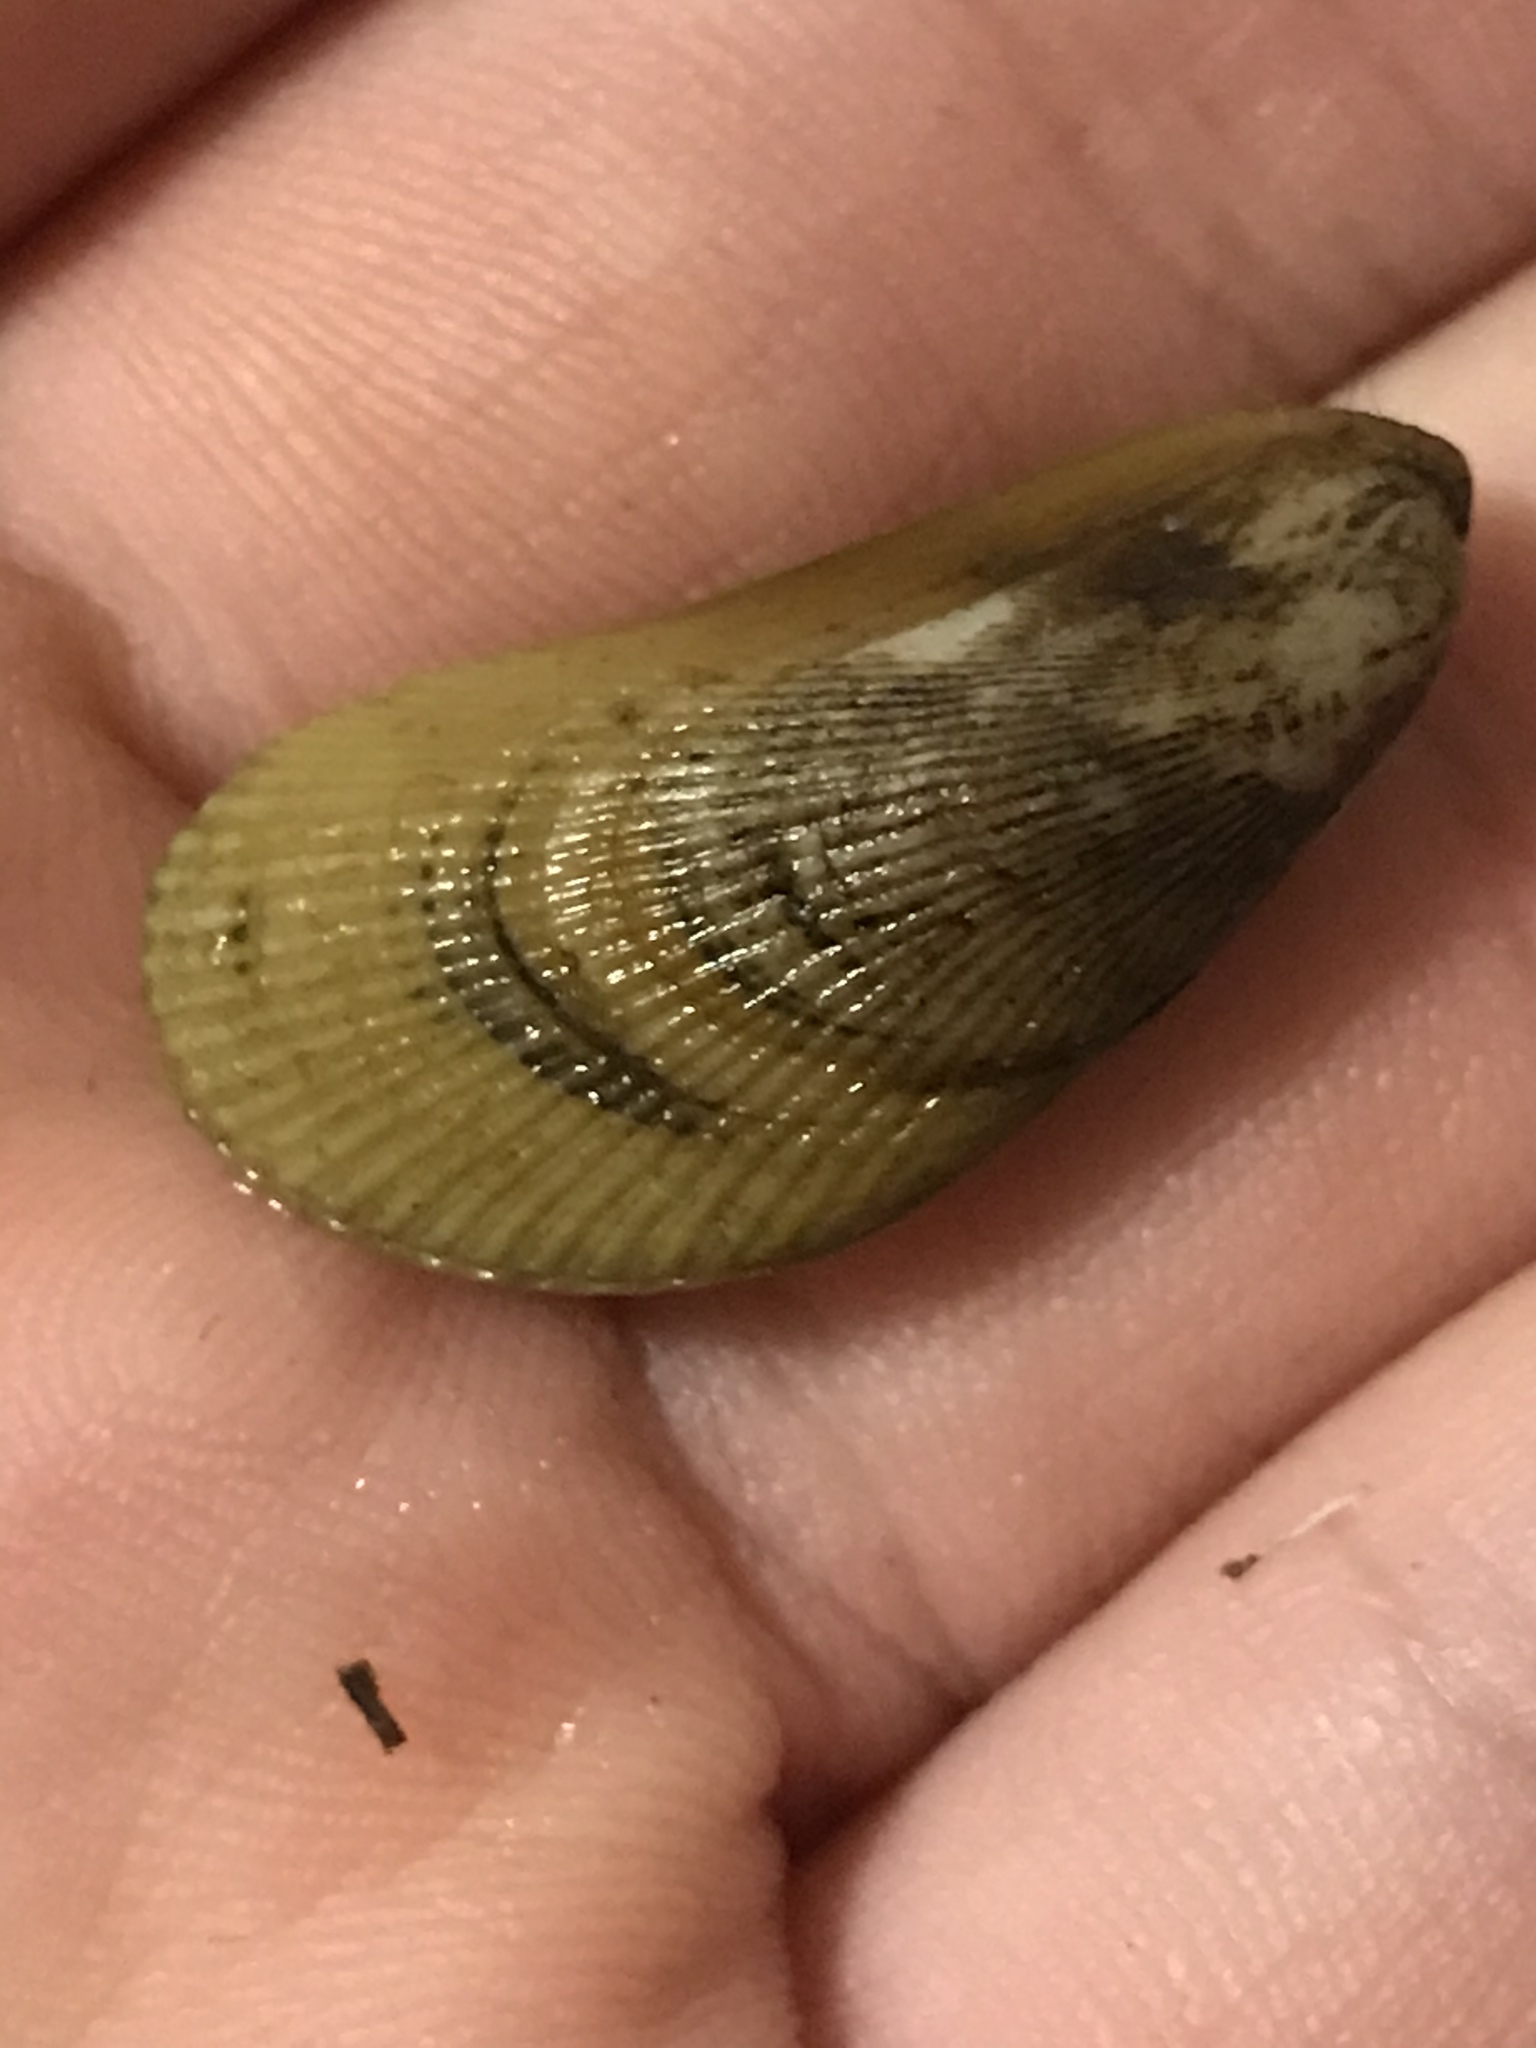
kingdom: Animalia
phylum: Mollusca
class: Bivalvia
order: Mytilida
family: Mytilidae
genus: Geukensia
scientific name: Geukensia demissa
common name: Ribbed mussel
